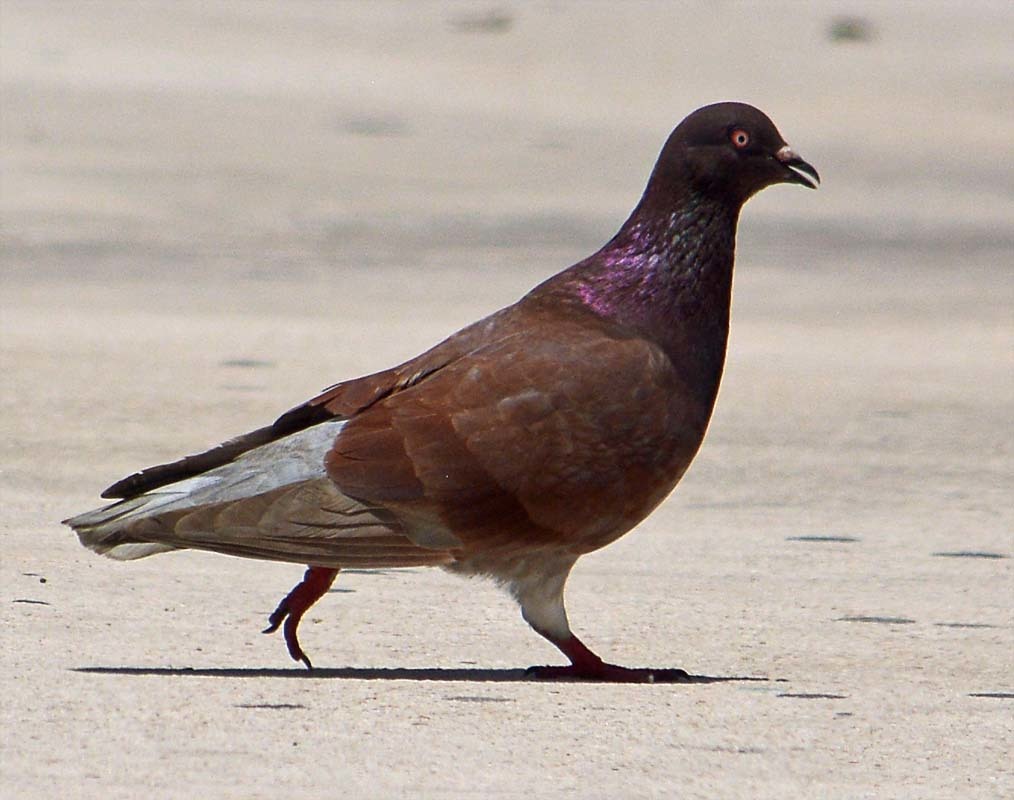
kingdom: Animalia
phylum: Chordata
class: Aves
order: Columbiformes
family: Columbidae
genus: Columba
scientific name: Columba livia
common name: Rock pigeon
